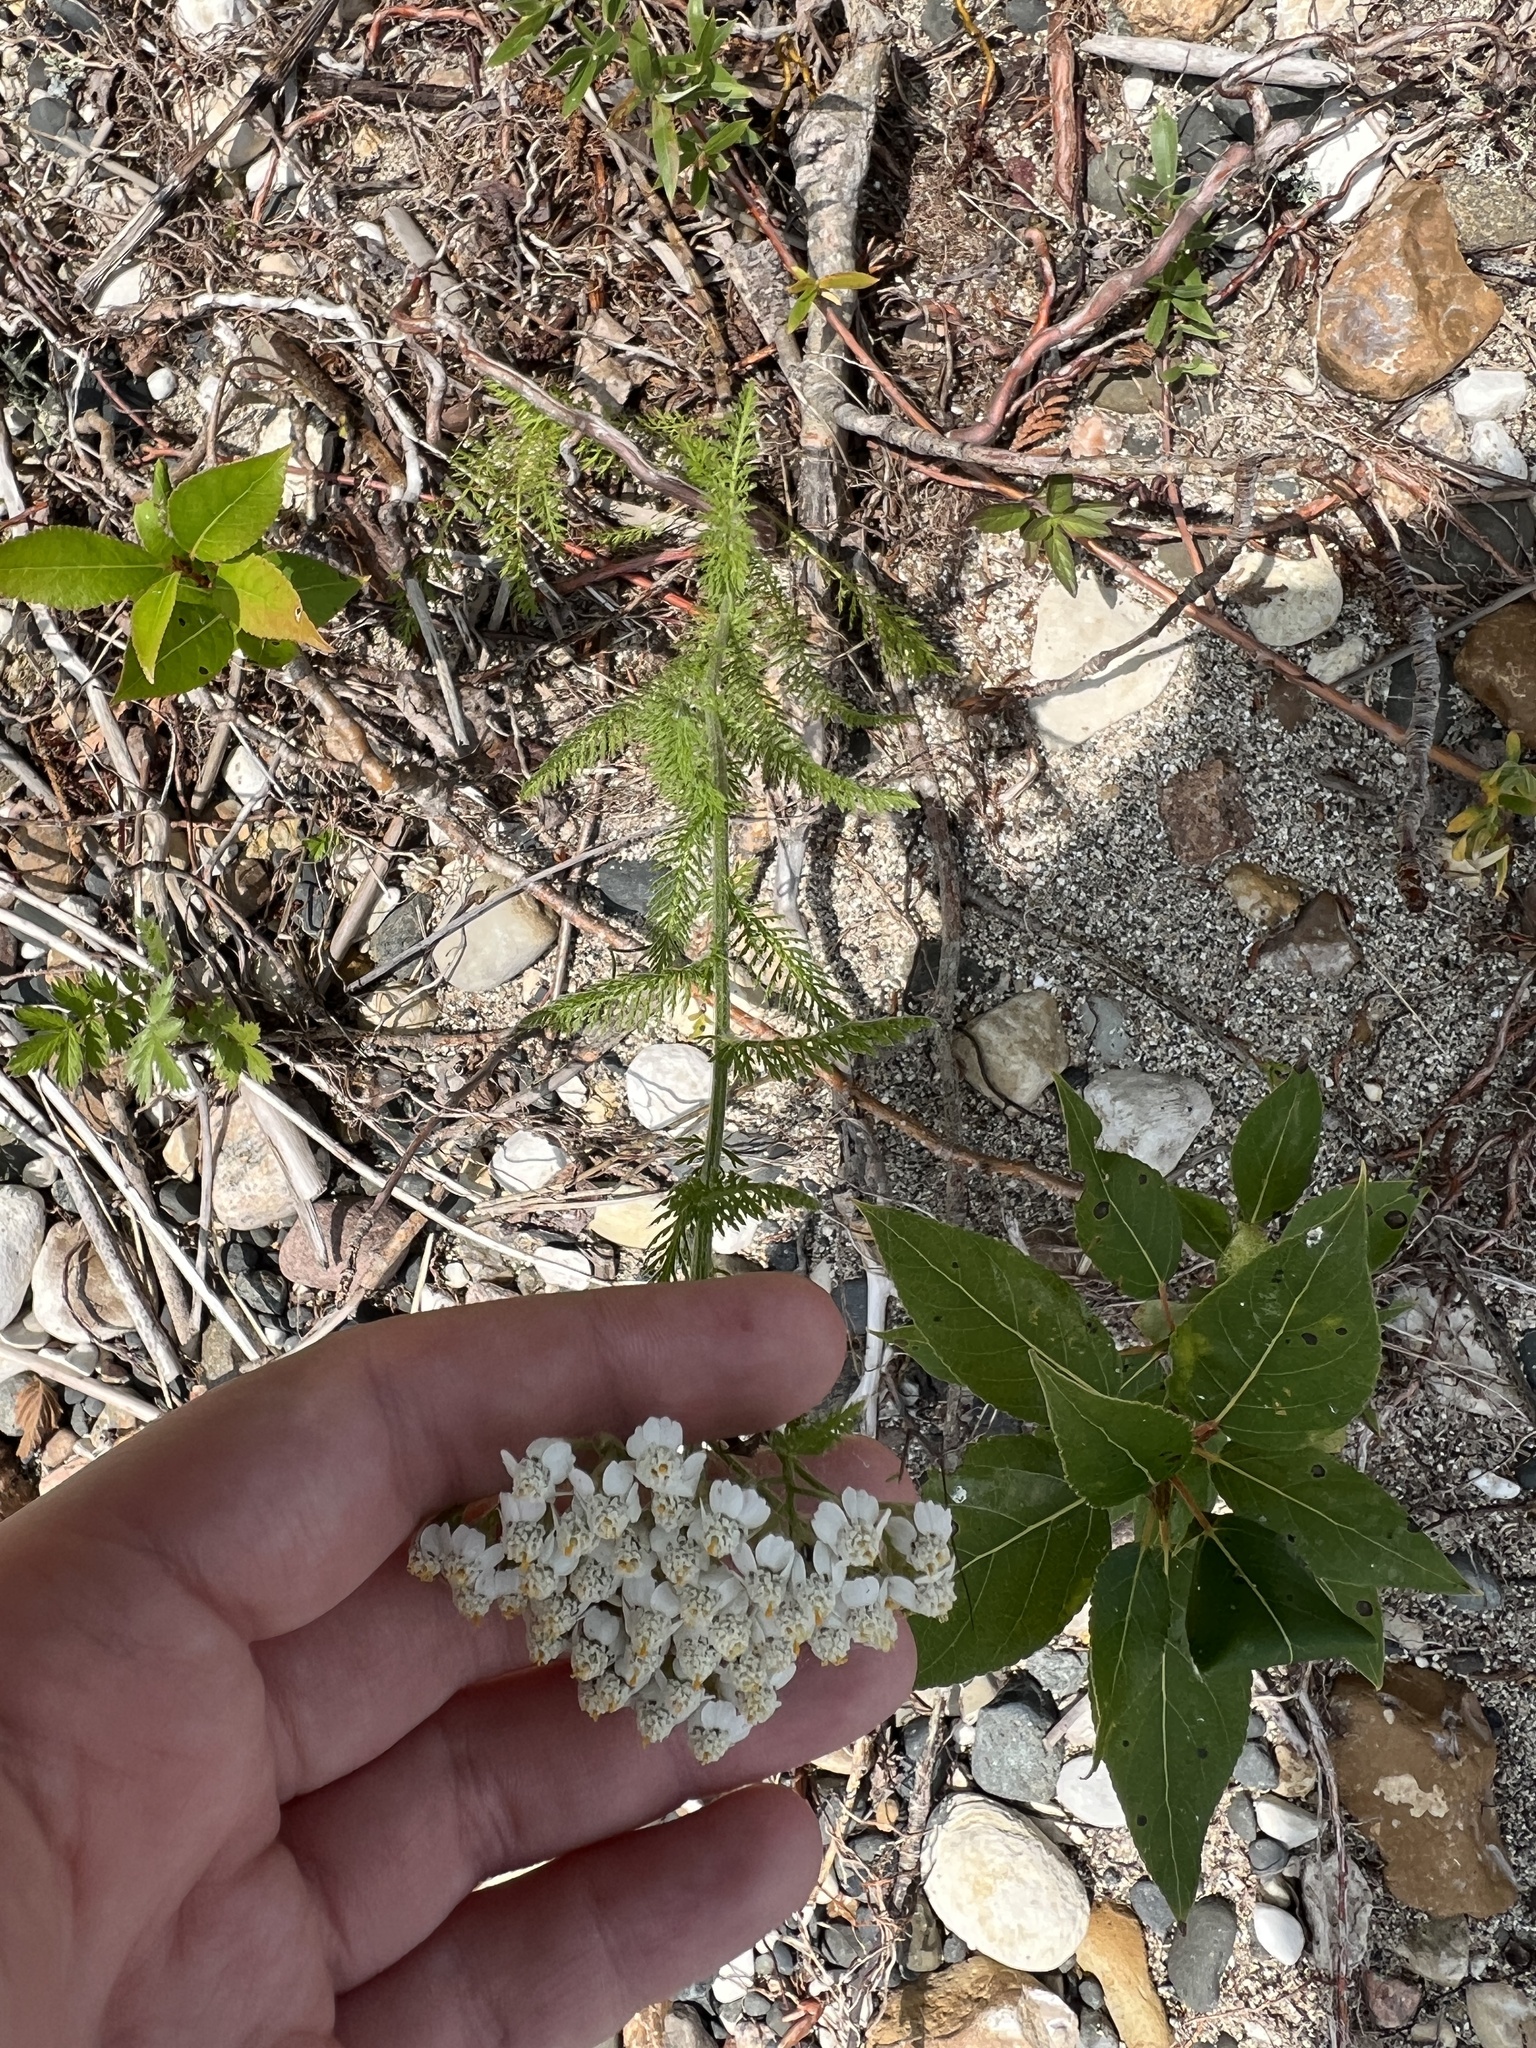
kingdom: Plantae
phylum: Tracheophyta
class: Magnoliopsida
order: Asterales
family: Asteraceae
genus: Achillea
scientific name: Achillea millefolium
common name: Yarrow
